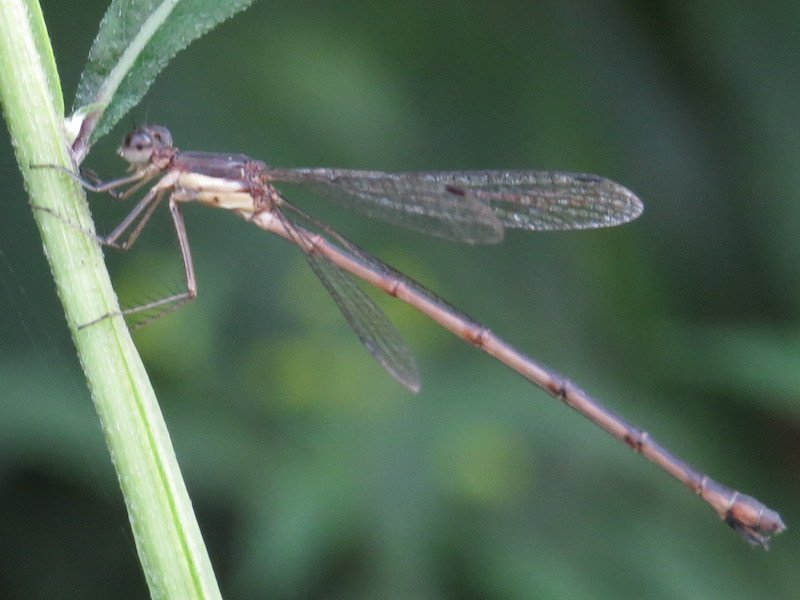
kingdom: Animalia
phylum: Arthropoda
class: Insecta
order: Odonata
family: Lestidae
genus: Lestes
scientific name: Lestes rectangularis
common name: Slender spreadwing
